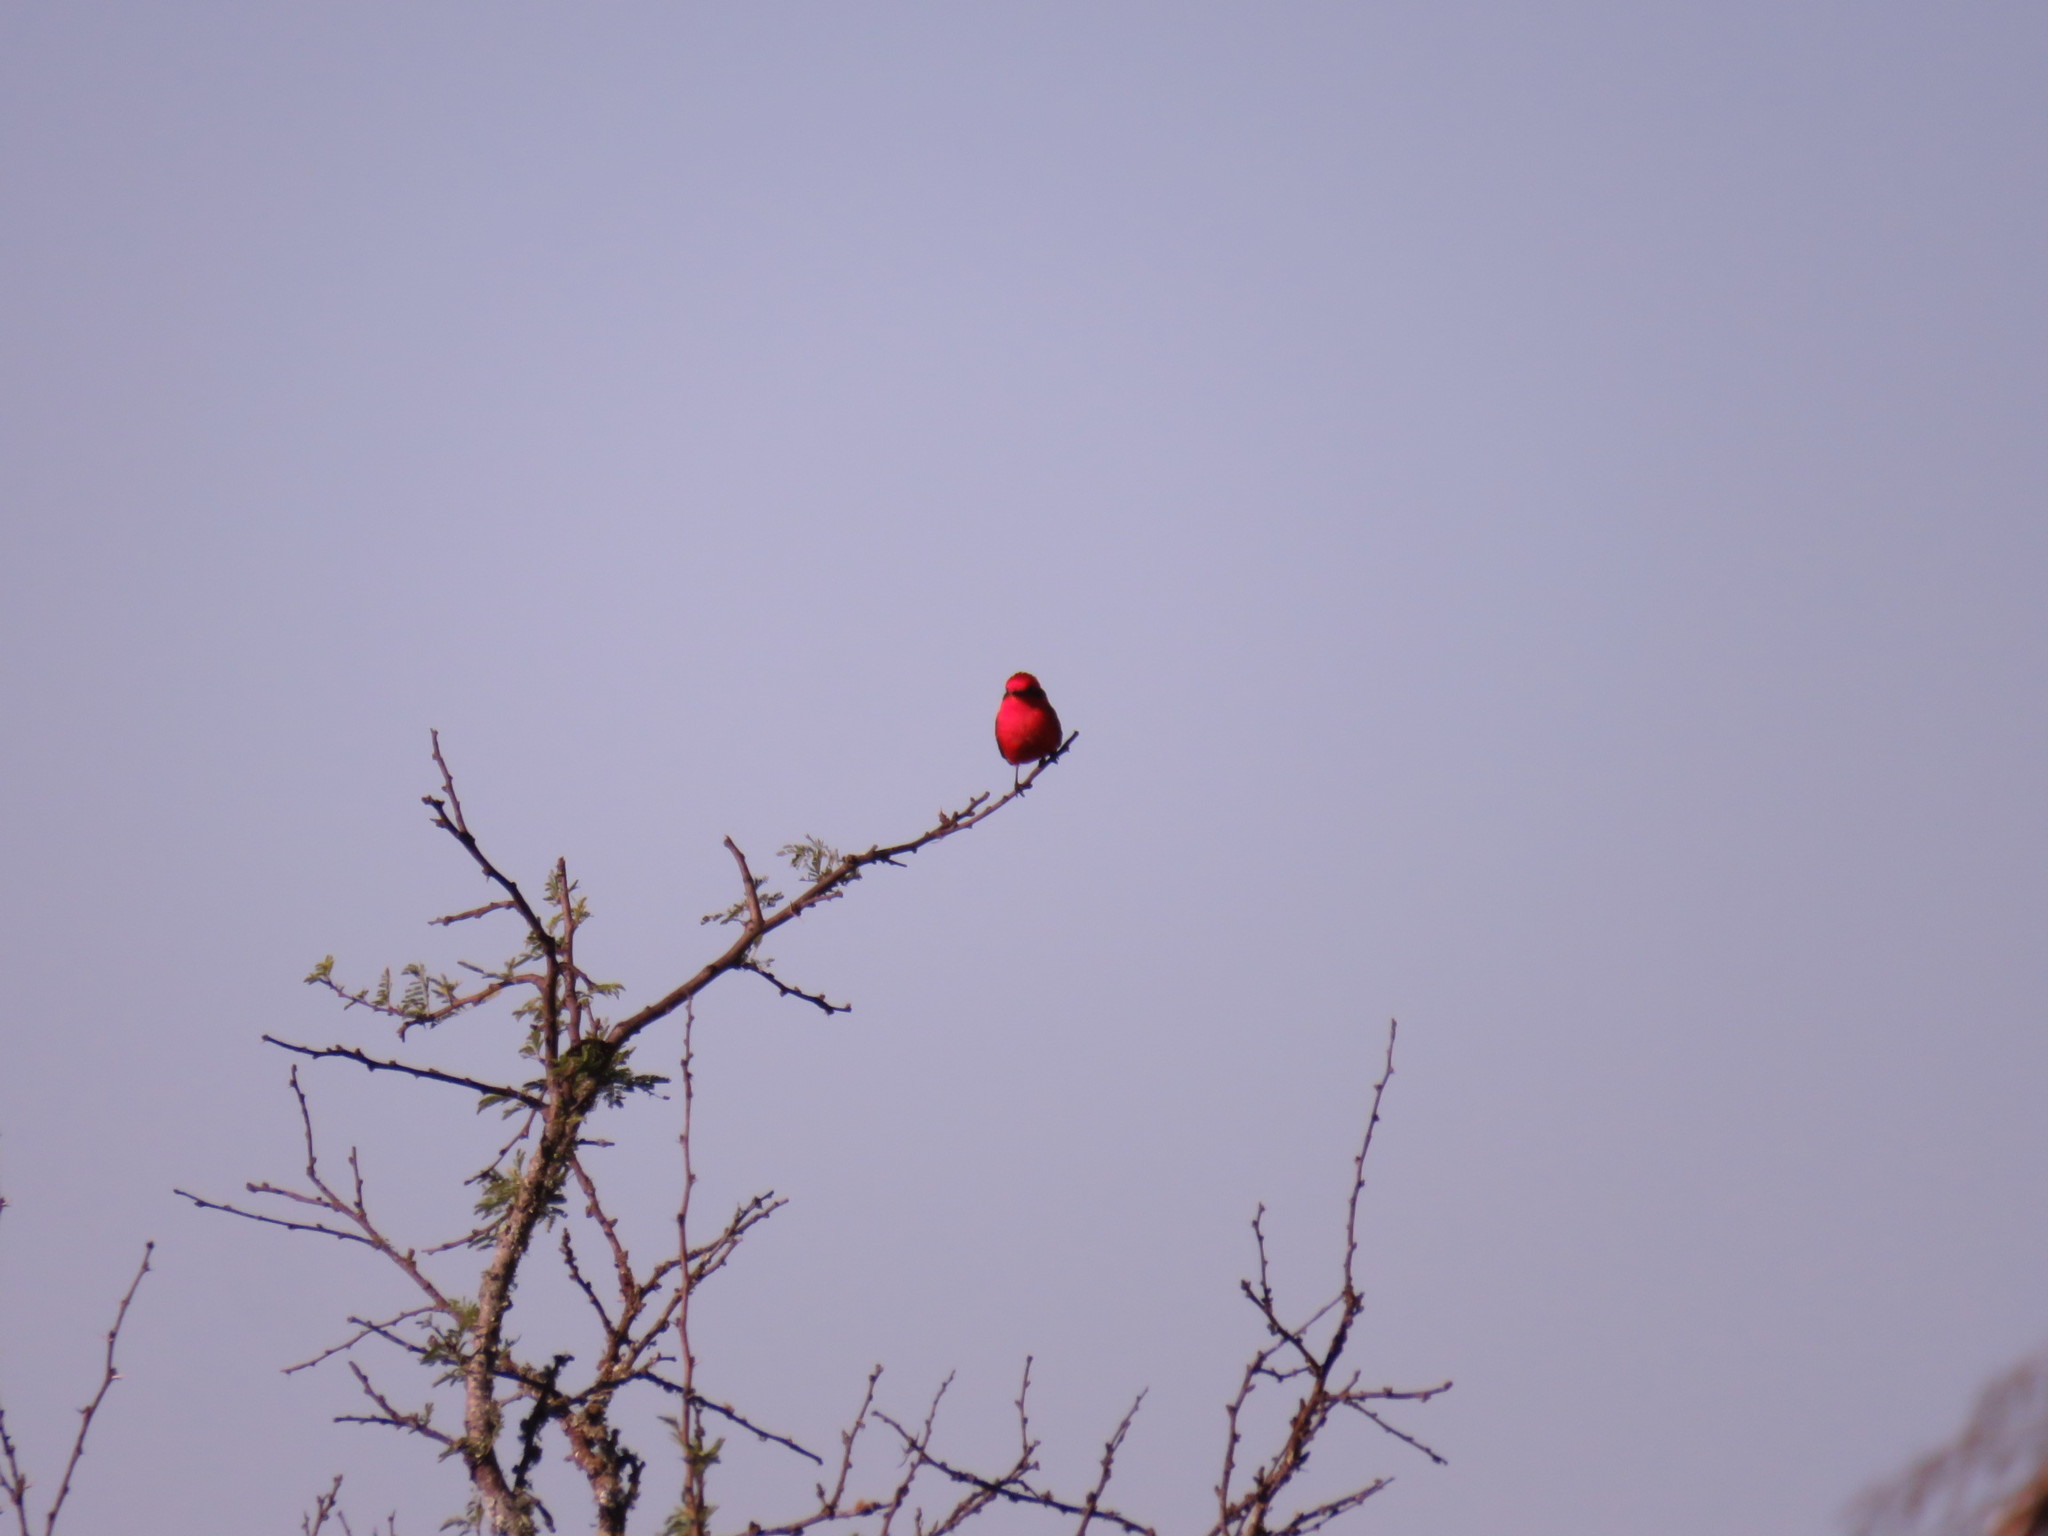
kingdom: Animalia
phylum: Chordata
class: Aves
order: Passeriformes
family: Tyrannidae
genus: Pyrocephalus
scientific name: Pyrocephalus rubinus
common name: Vermilion flycatcher
